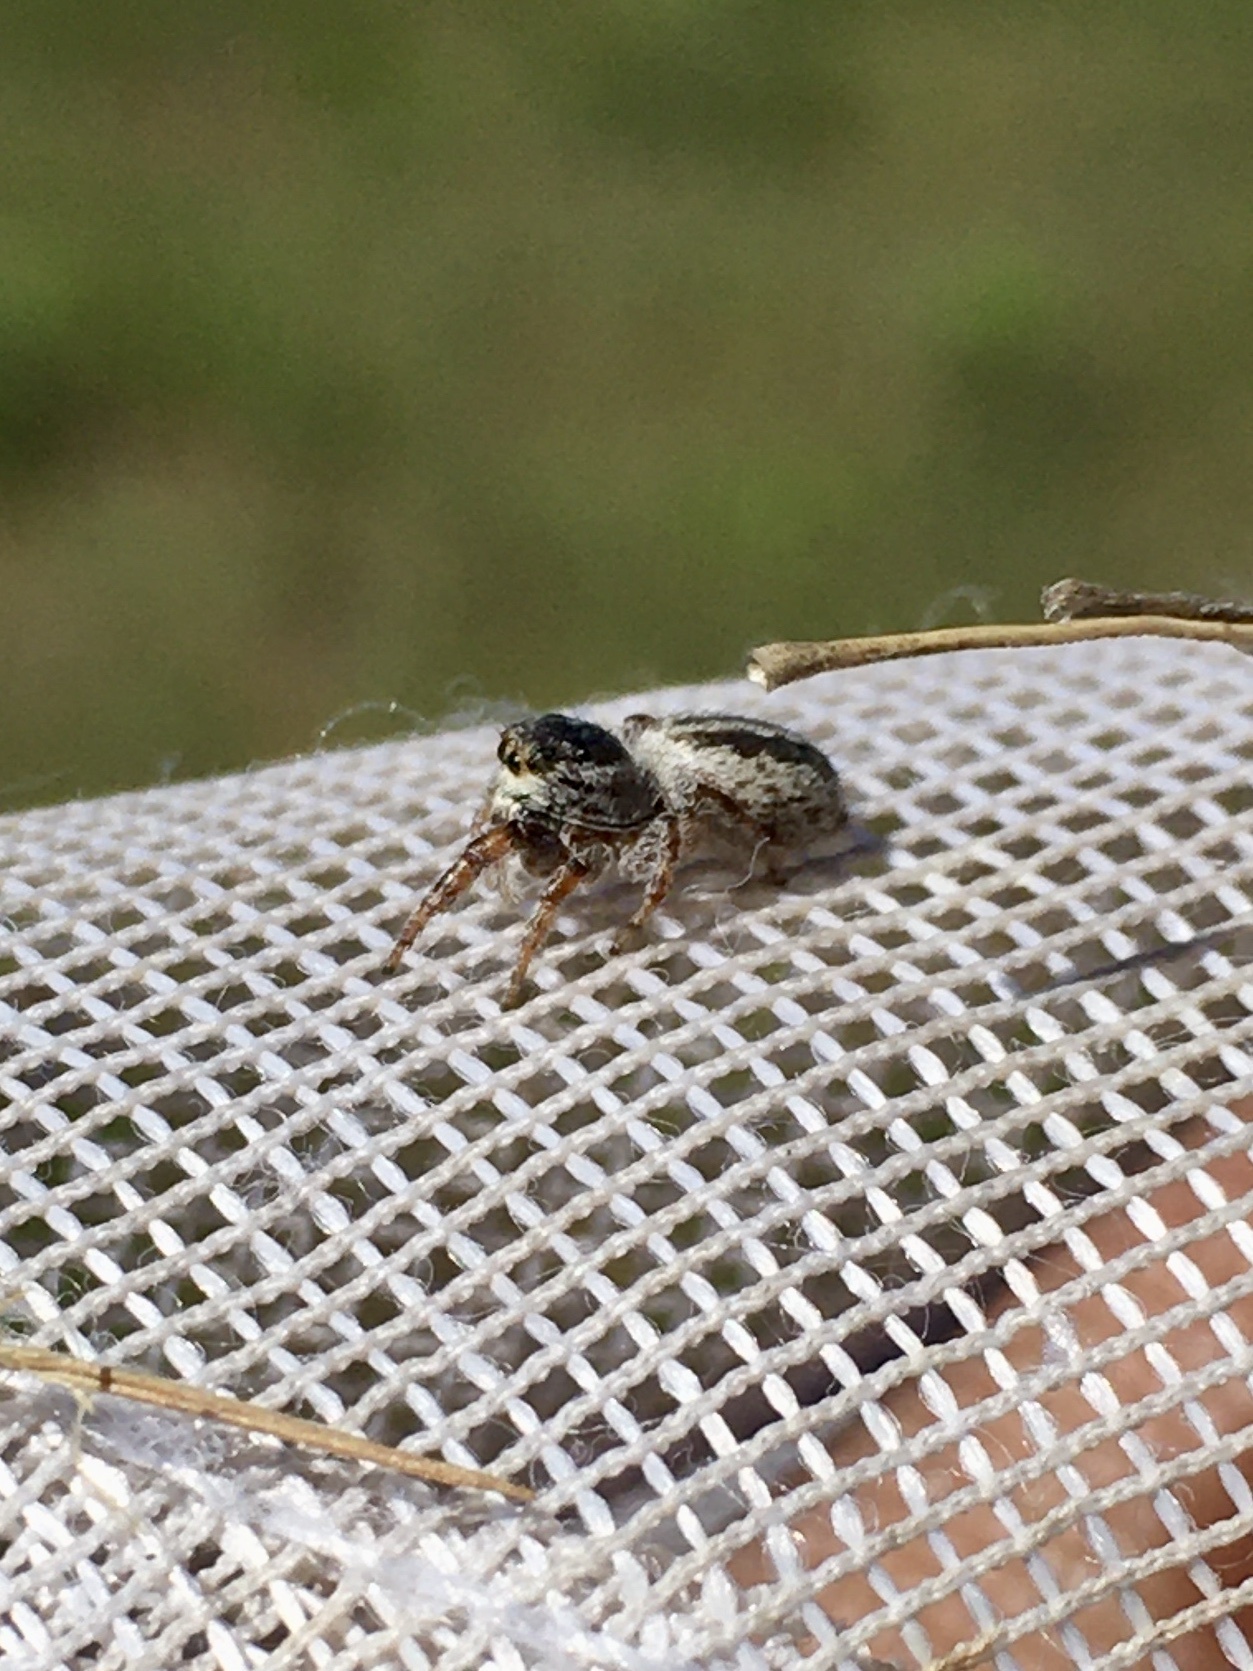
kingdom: Animalia
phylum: Arthropoda
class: Arachnida
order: Araneae
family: Salticidae
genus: Pelegrina
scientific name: Pelegrina arizonensis
